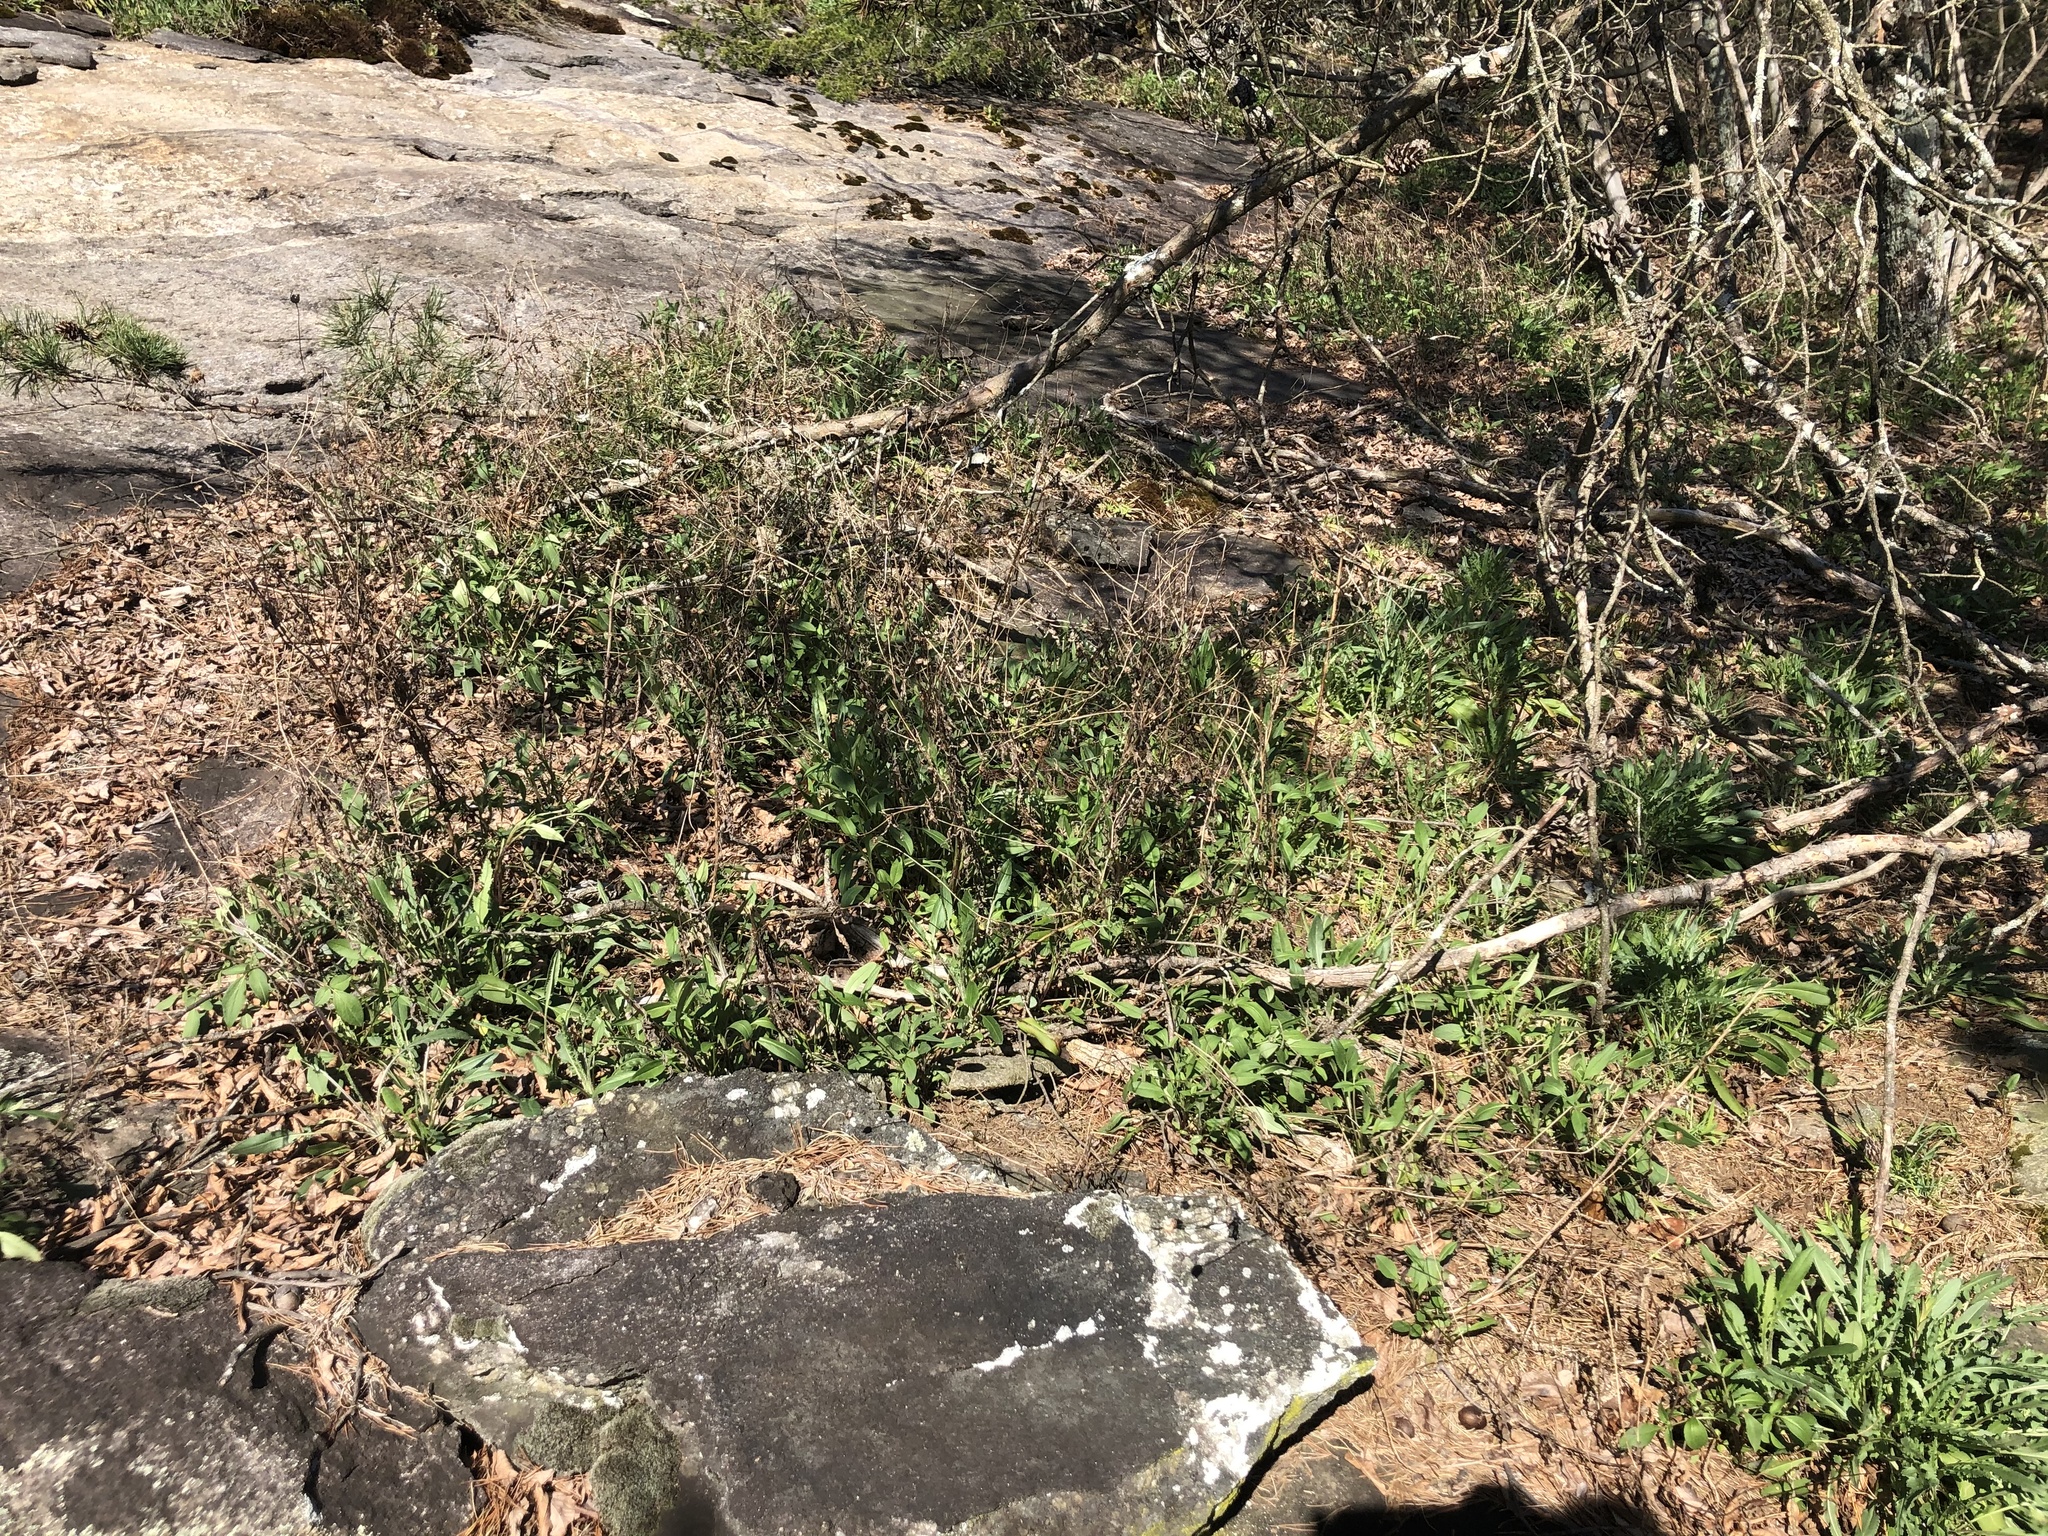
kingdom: Plantae
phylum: Tracheophyta
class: Magnoliopsida
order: Asterales
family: Asteraceae
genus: Coreopsis
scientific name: Coreopsis pubescens
